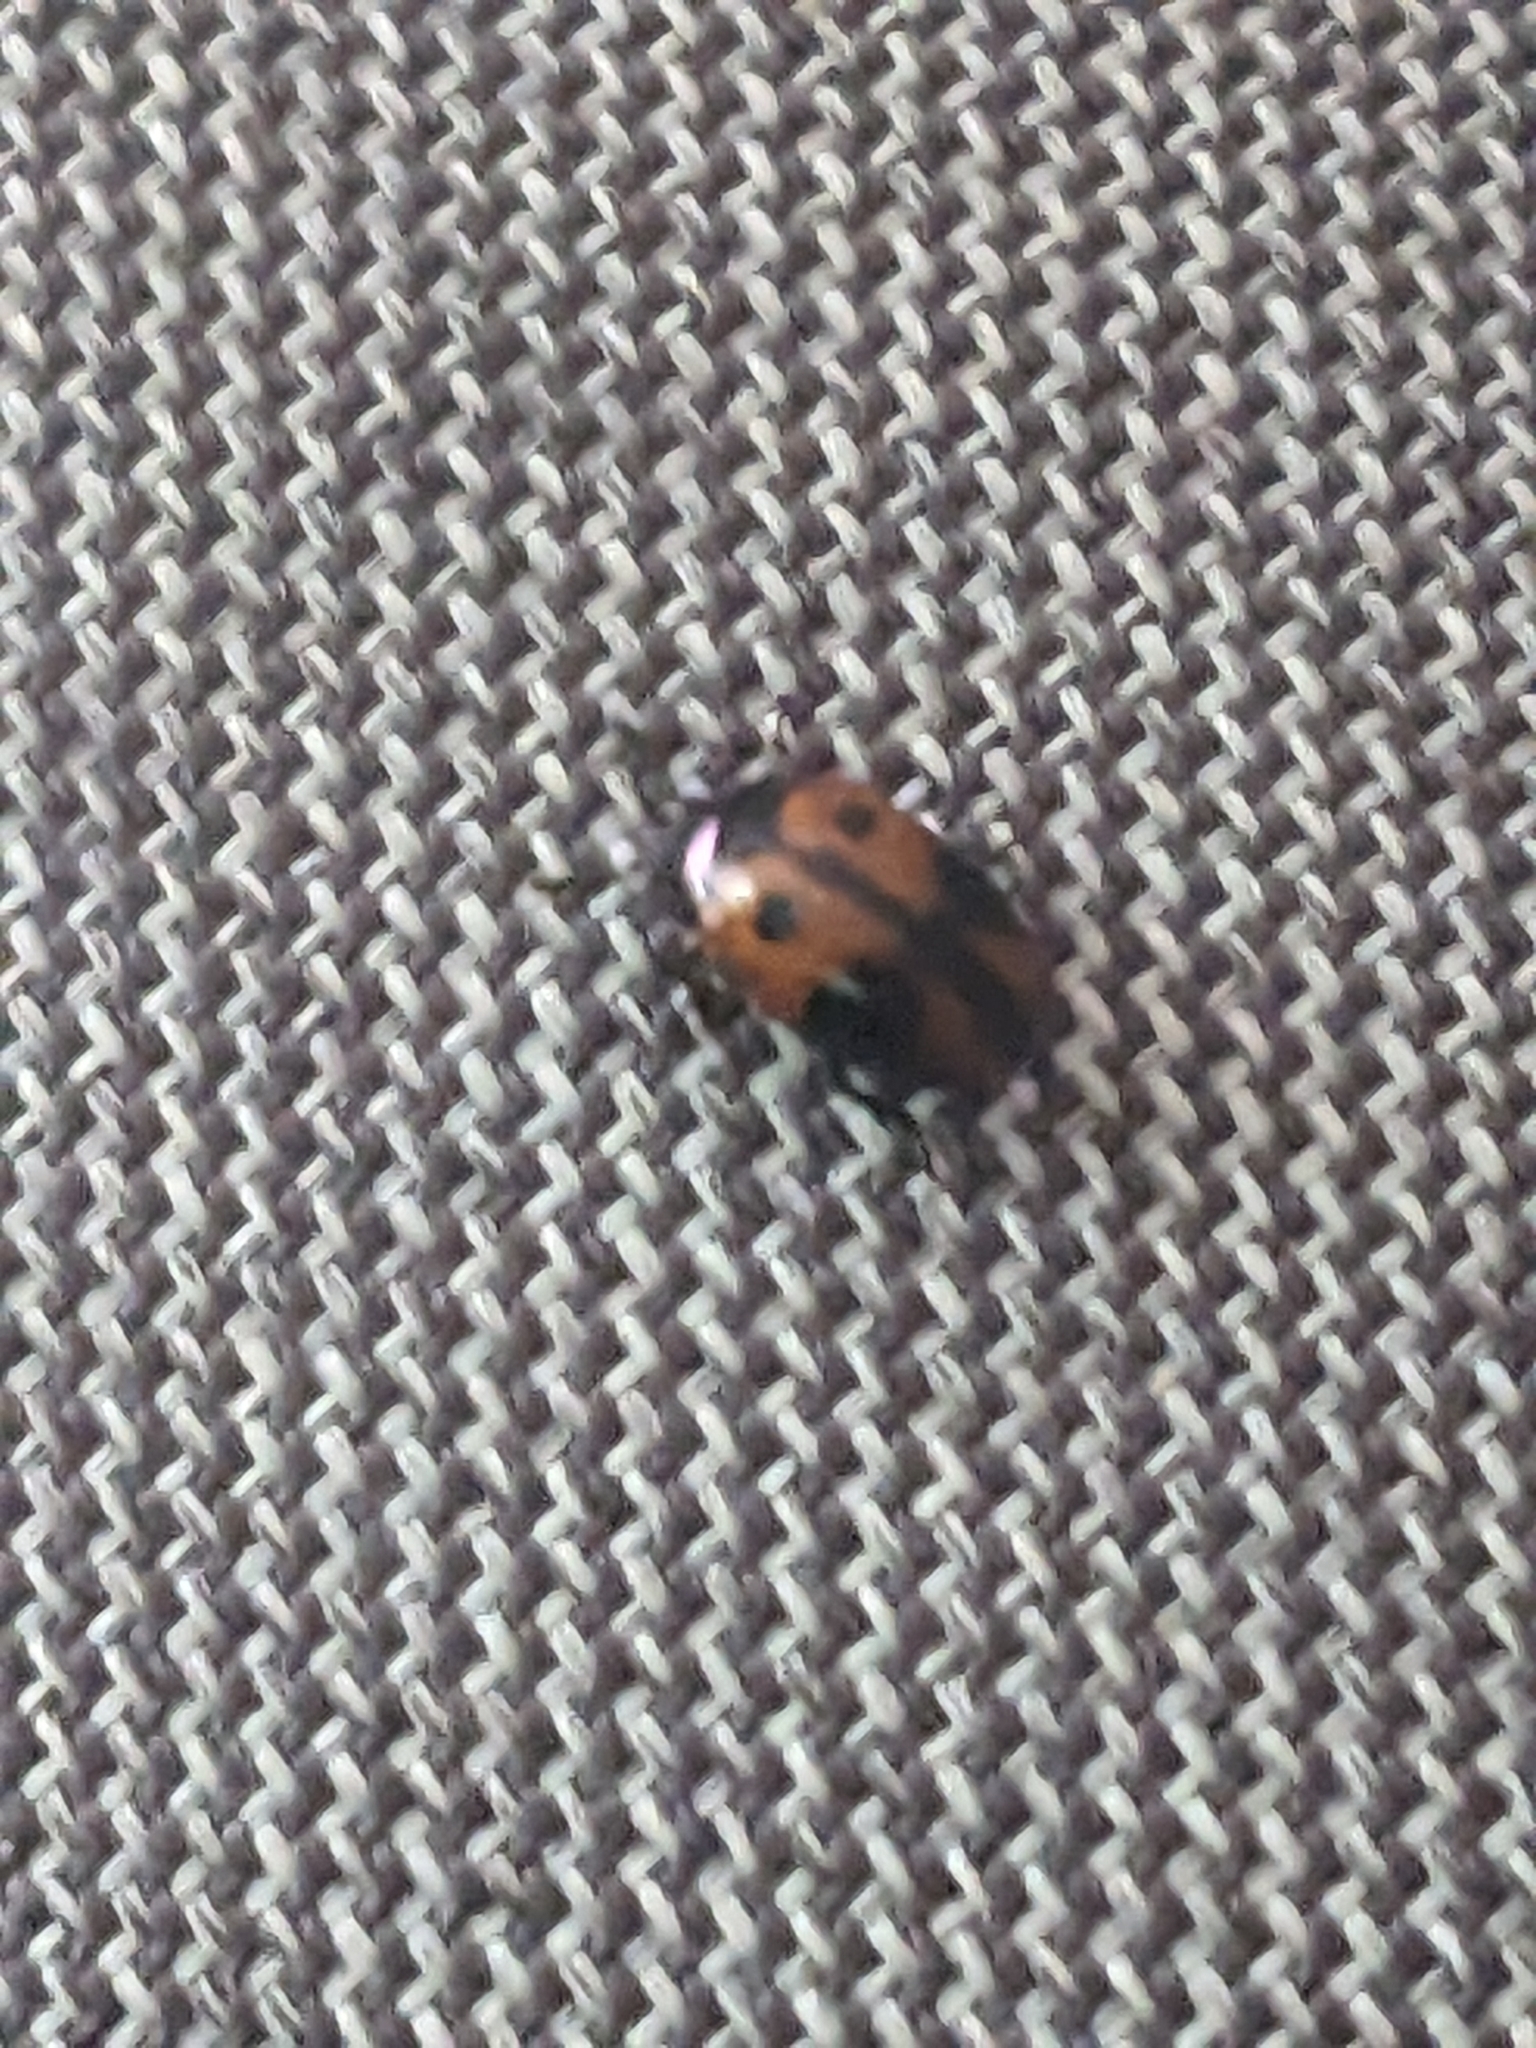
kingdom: Animalia
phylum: Arthropoda
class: Insecta
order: Coleoptera
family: Tenebrionidae
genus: Diaperis
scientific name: Diaperis maculata
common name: Darkling beetle
